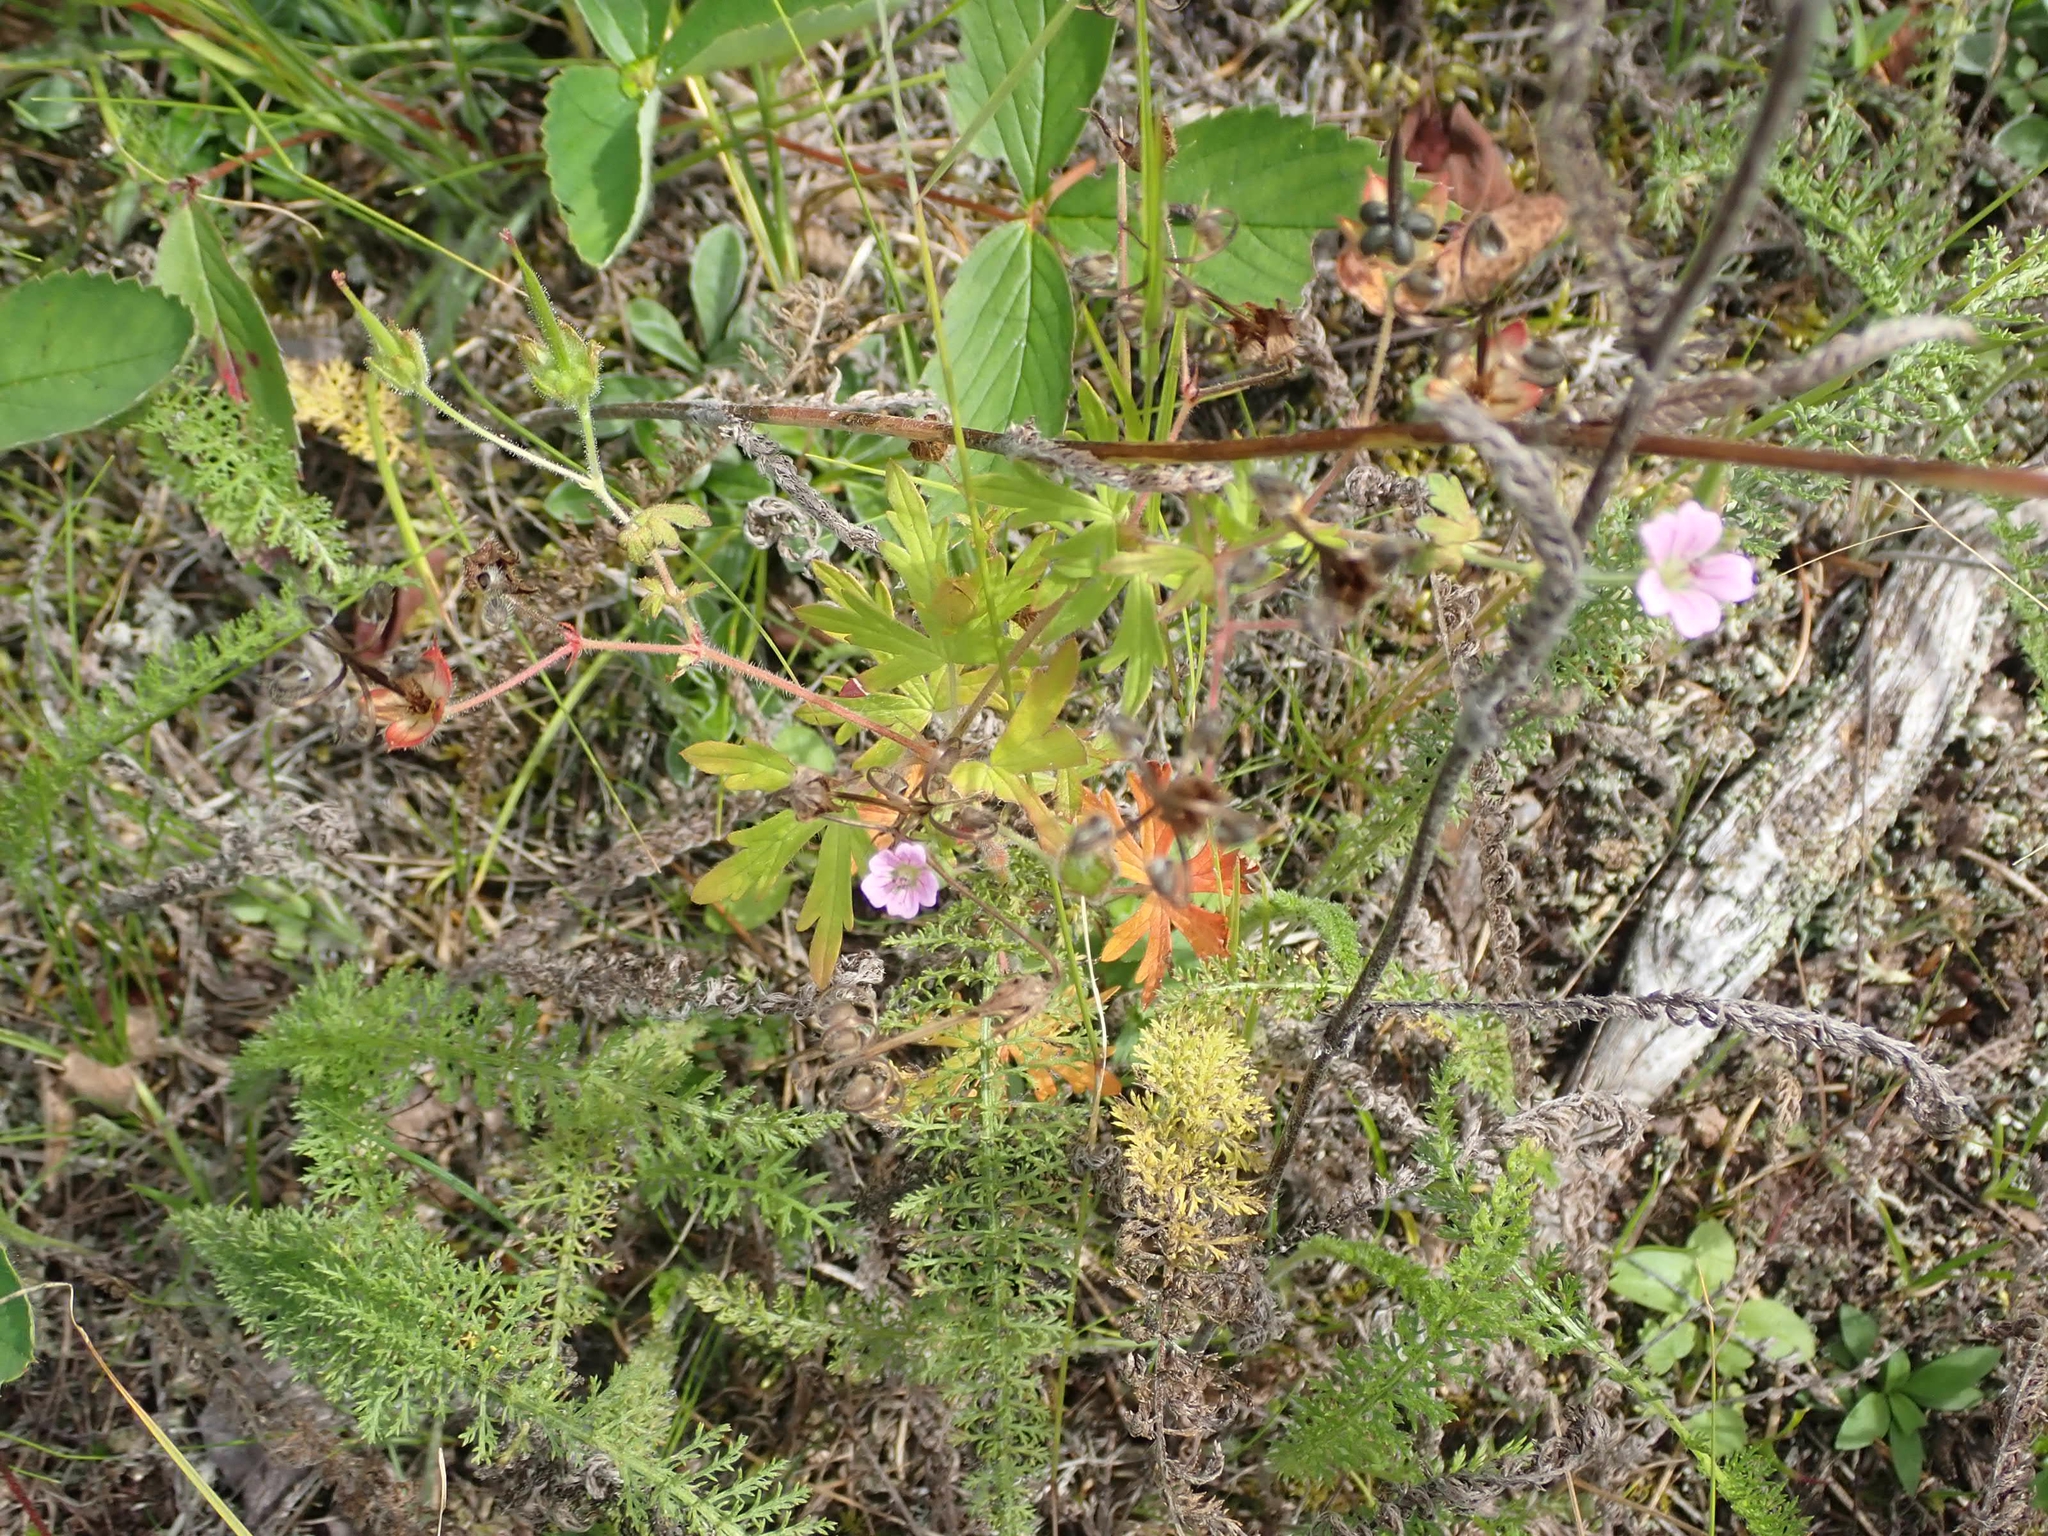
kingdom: Plantae
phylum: Tracheophyta
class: Magnoliopsida
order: Geraniales
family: Geraniaceae
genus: Geranium
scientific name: Geranium bicknellii
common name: Bicknell's cranesbill
